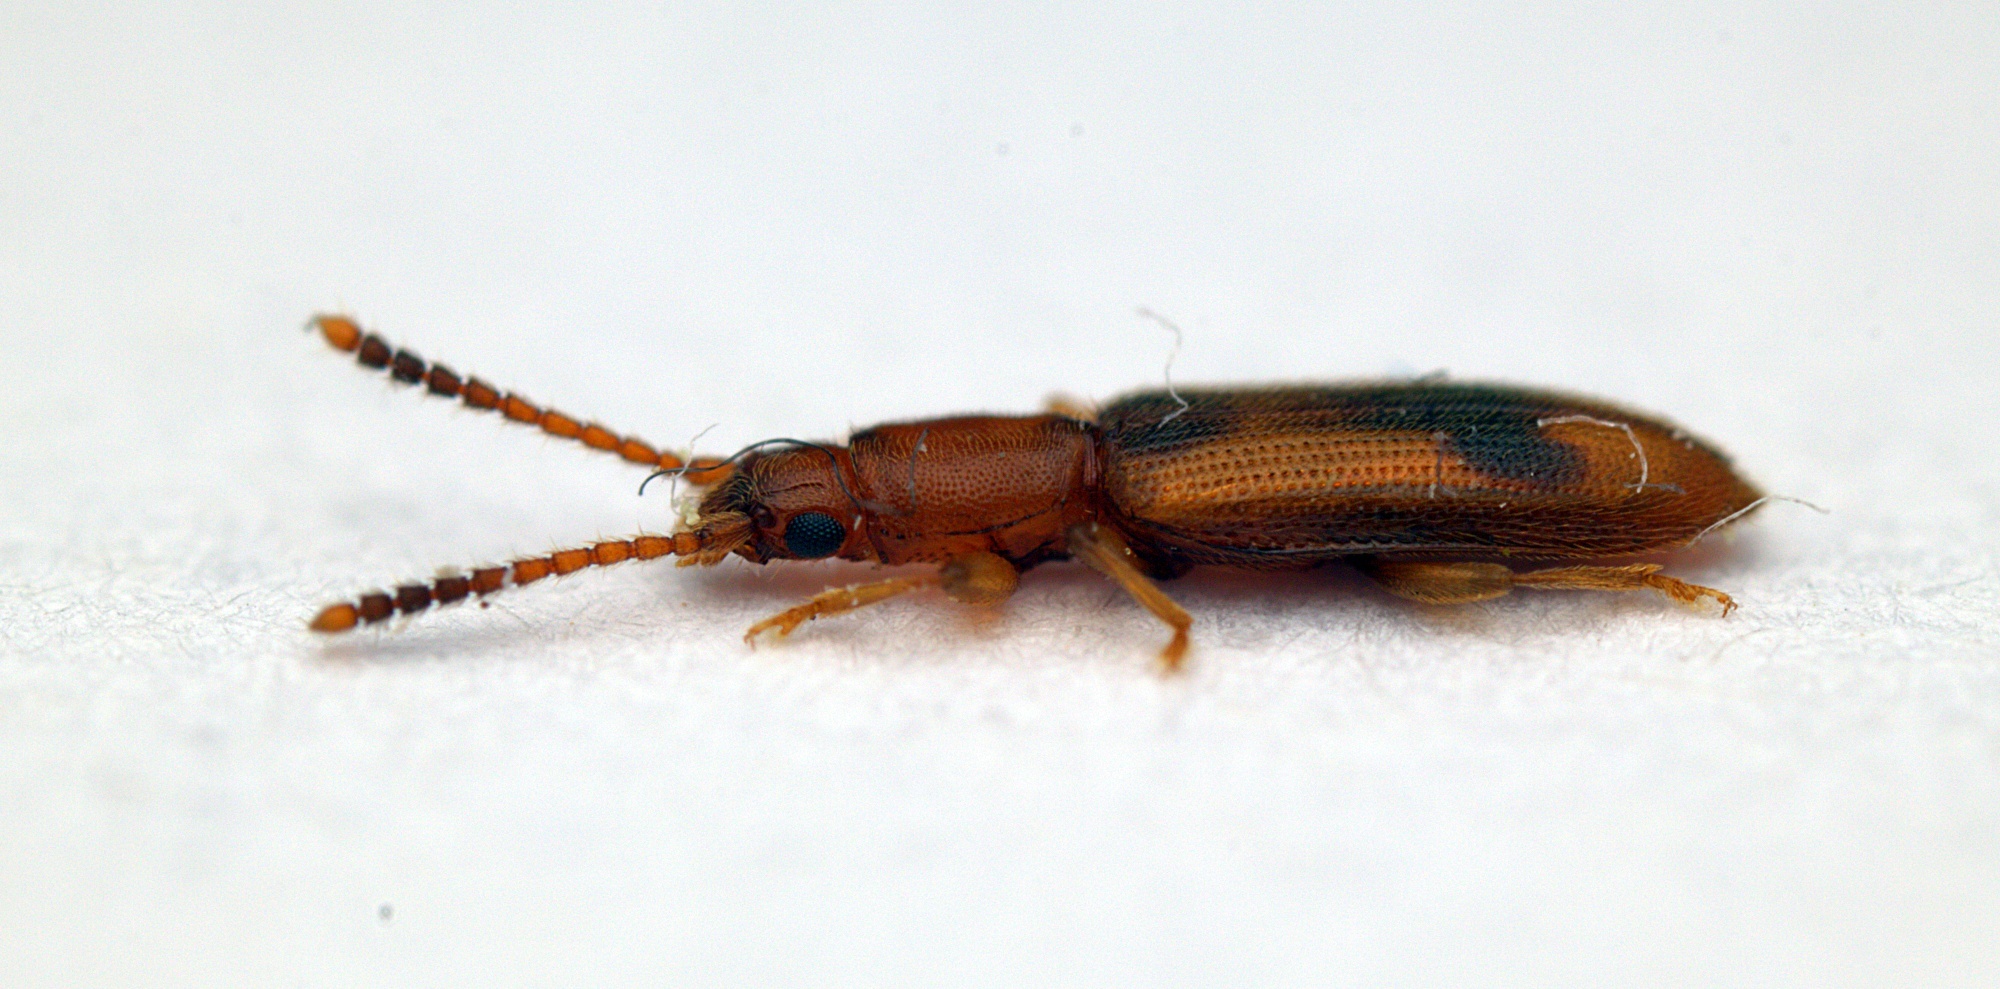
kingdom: Animalia
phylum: Arthropoda
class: Insecta
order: Coleoptera
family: Silvanidae
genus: Cryptamorpha
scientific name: Cryptamorpha desjardinsi
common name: Cryptamorpha
